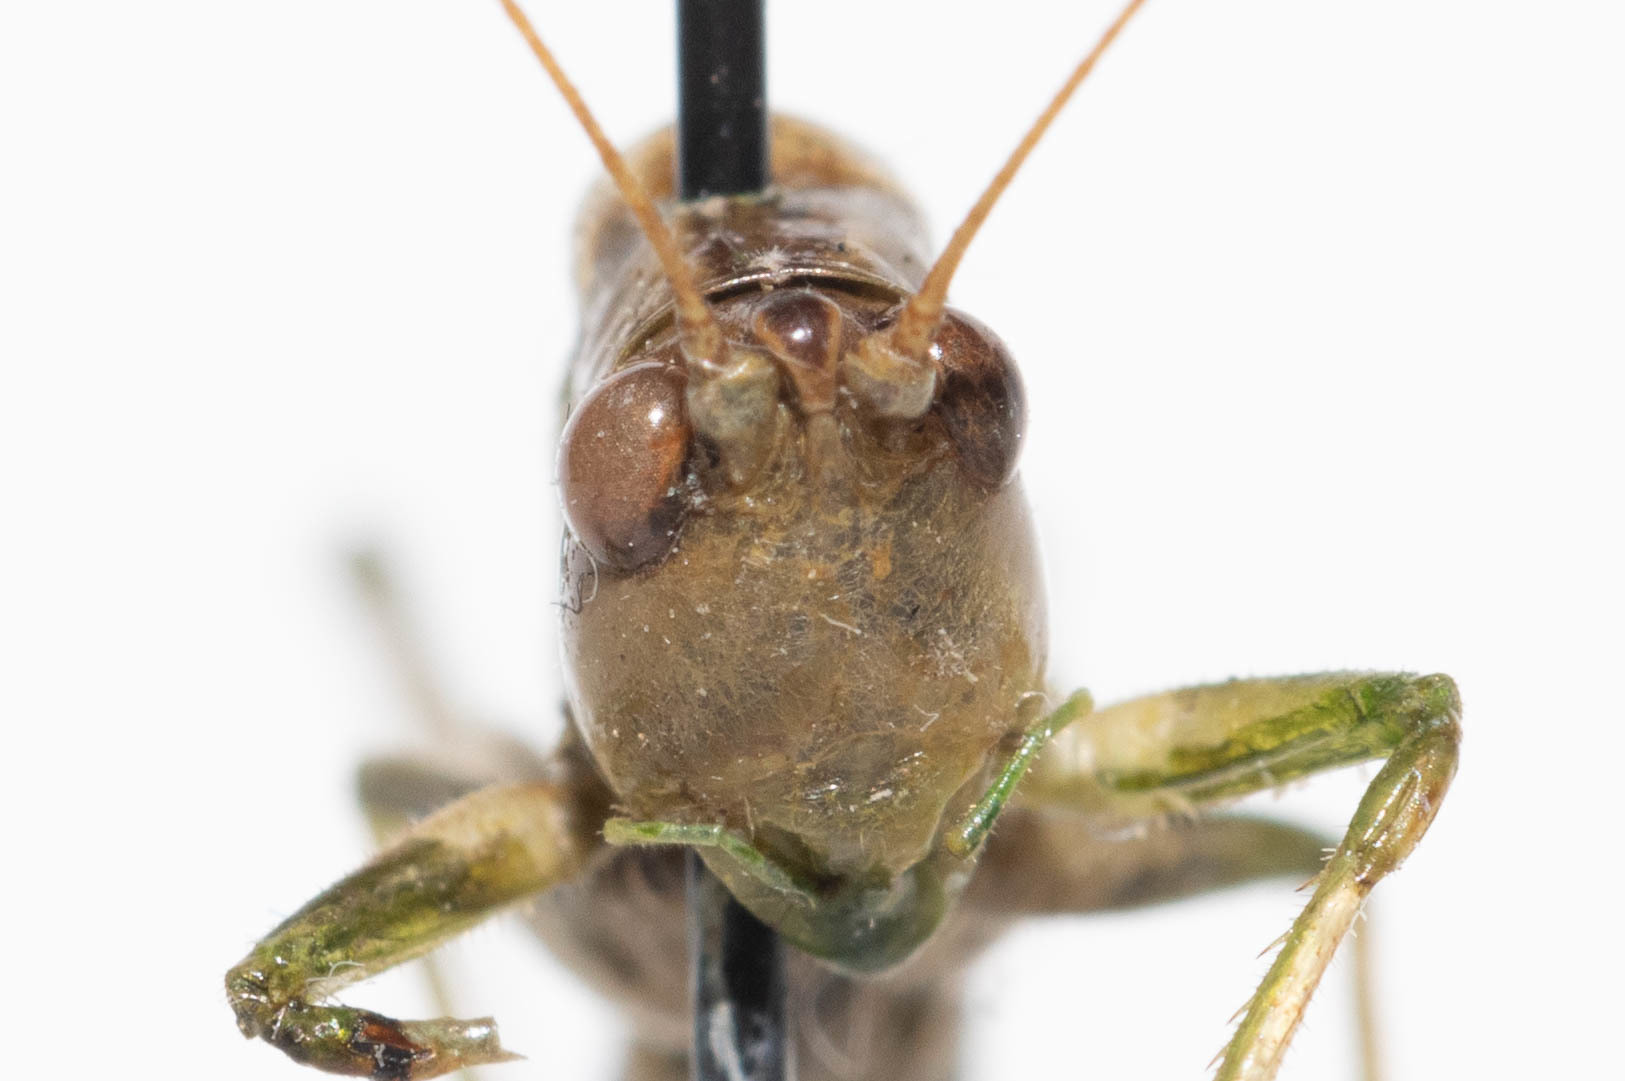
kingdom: Animalia
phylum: Arthropoda
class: Insecta
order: Orthoptera
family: Tettigoniidae
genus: Conocephalus
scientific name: Conocephalus fasciatus
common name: Slender meadow katydid
